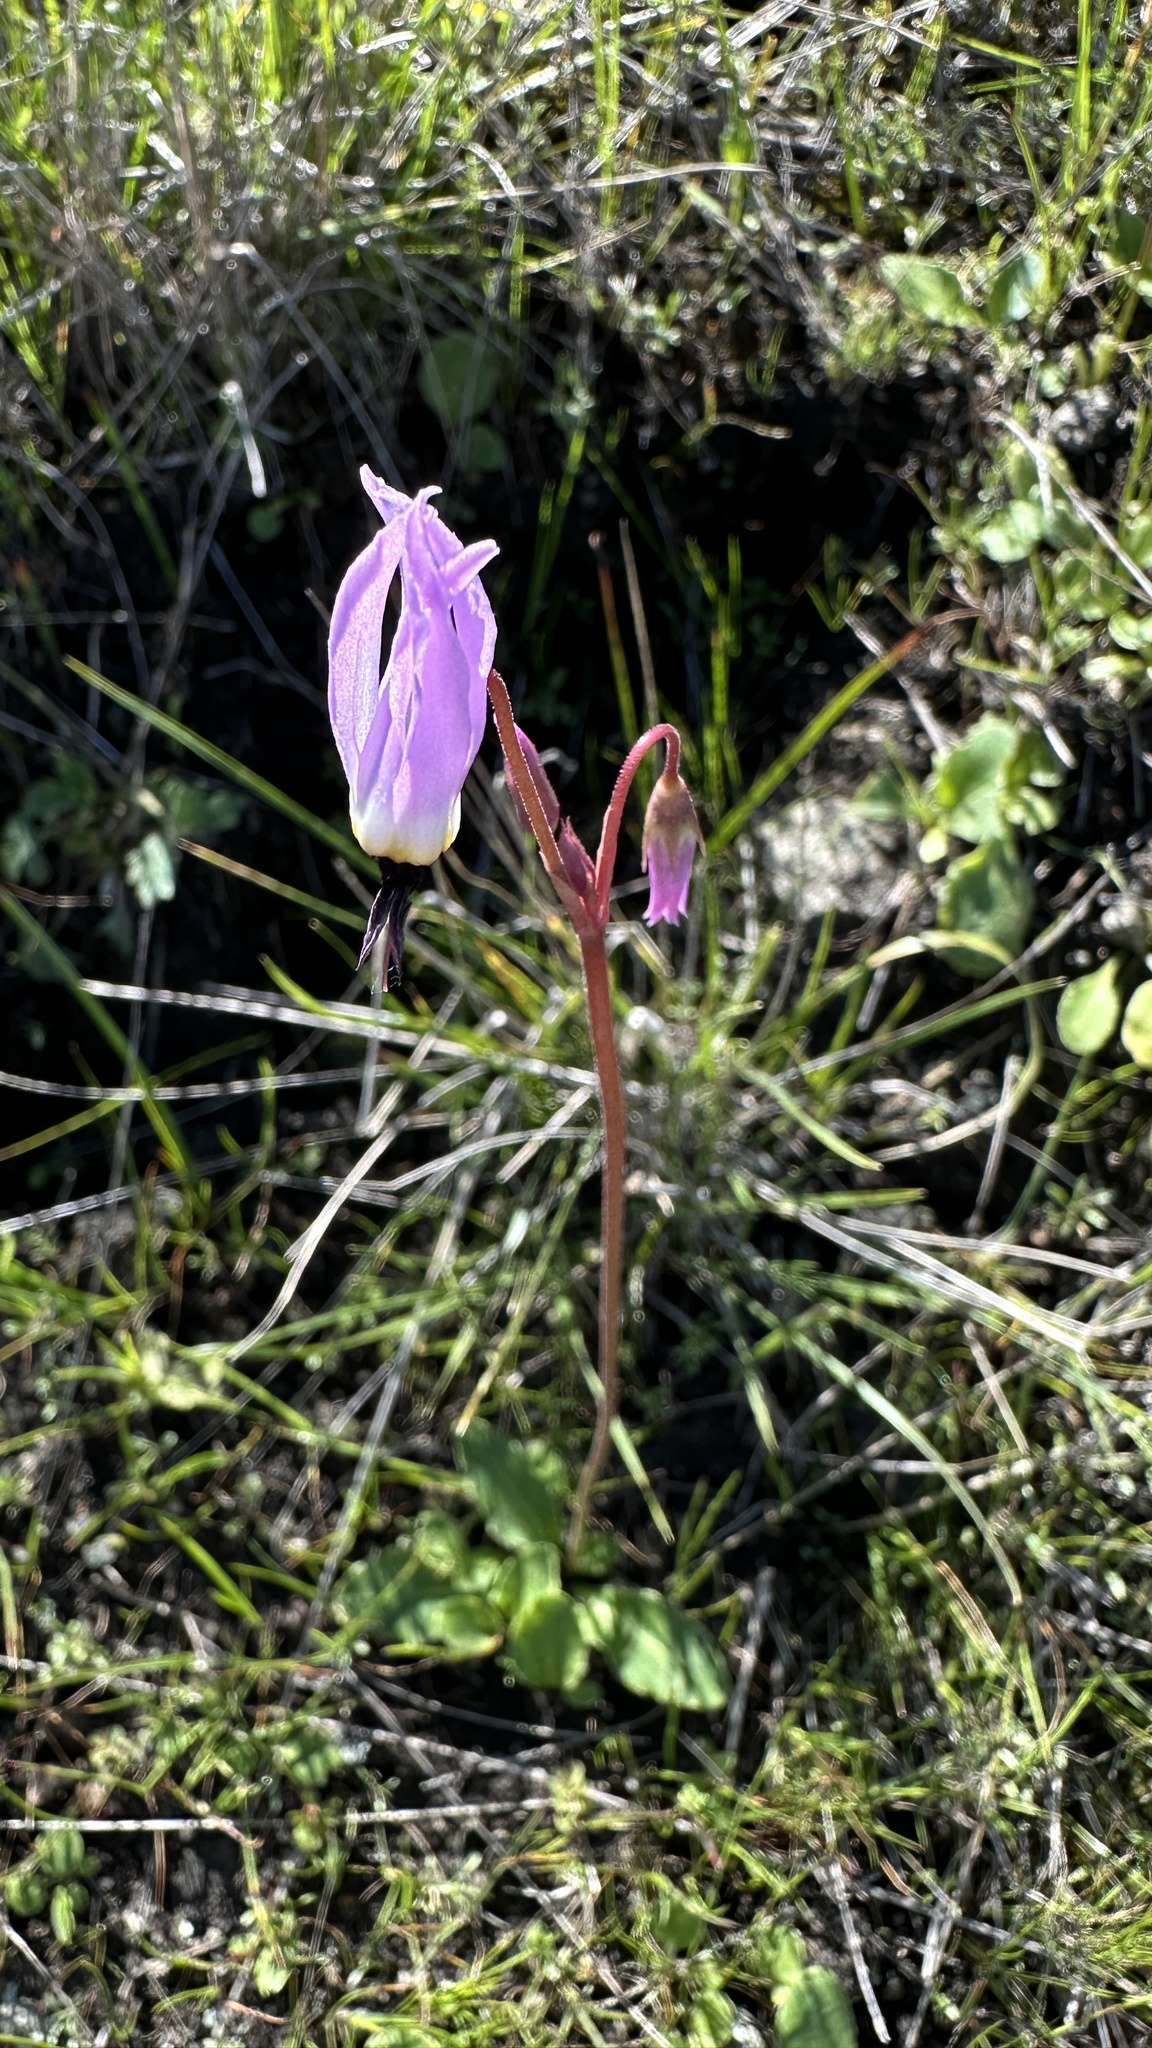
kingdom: Plantae
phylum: Tracheophyta
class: Magnoliopsida
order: Ericales
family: Primulaceae
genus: Dodecatheon
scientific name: Dodecatheon hendersonii
